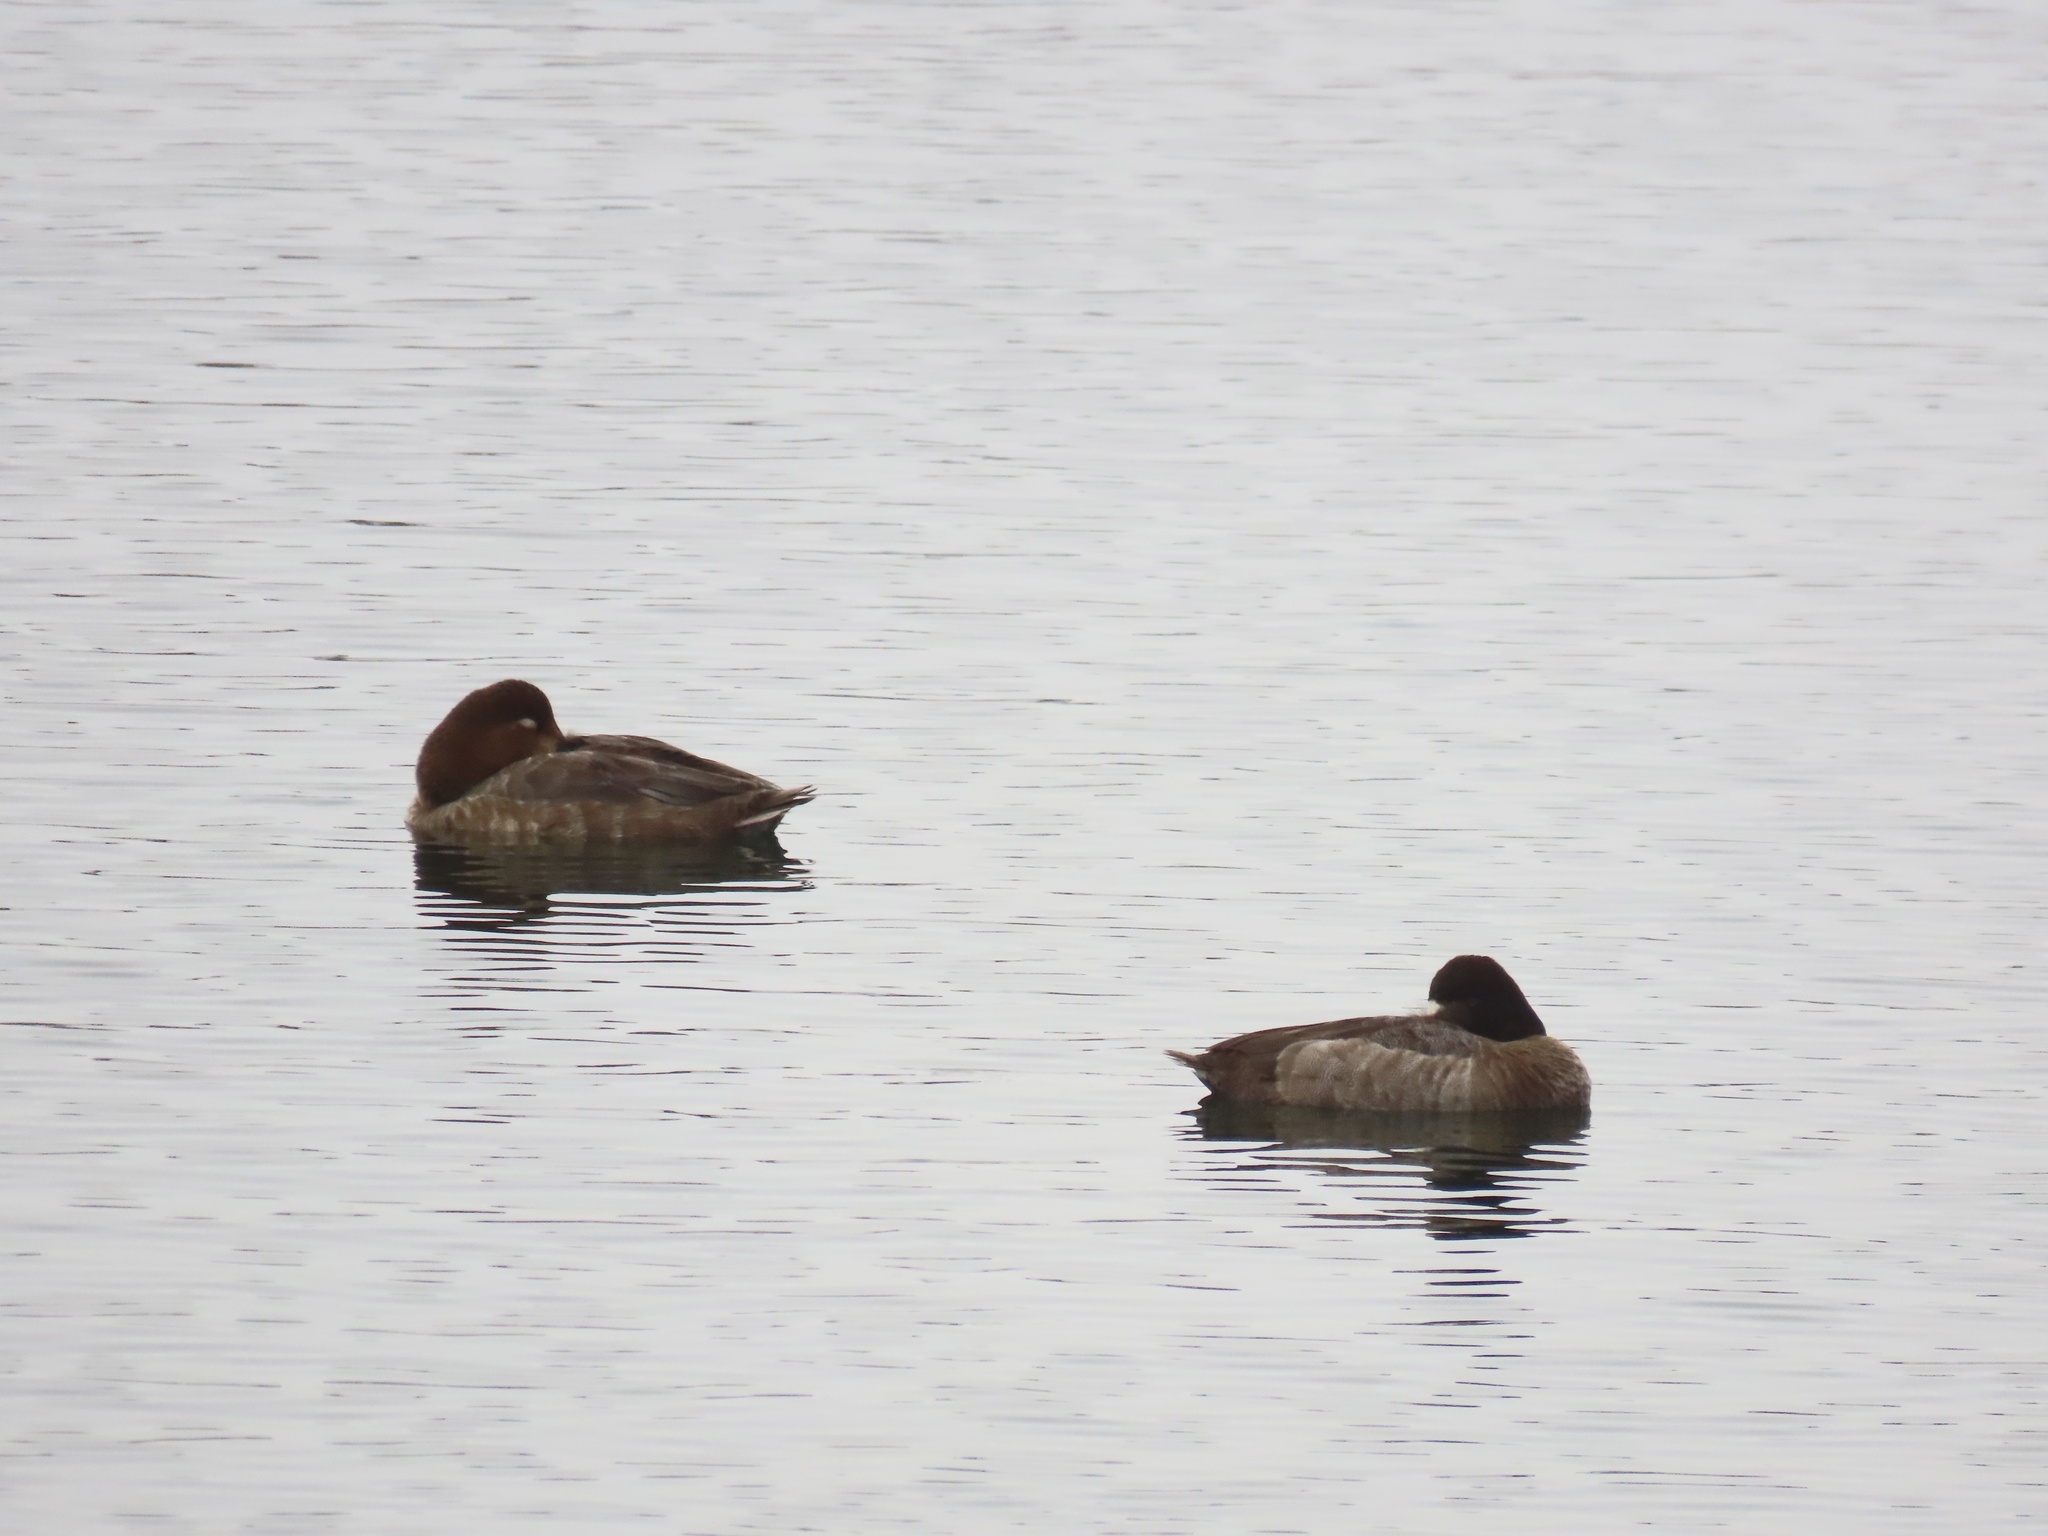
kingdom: Animalia
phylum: Chordata
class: Aves
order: Anseriformes
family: Anatidae
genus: Aythya
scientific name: Aythya affinis
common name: Lesser scaup
